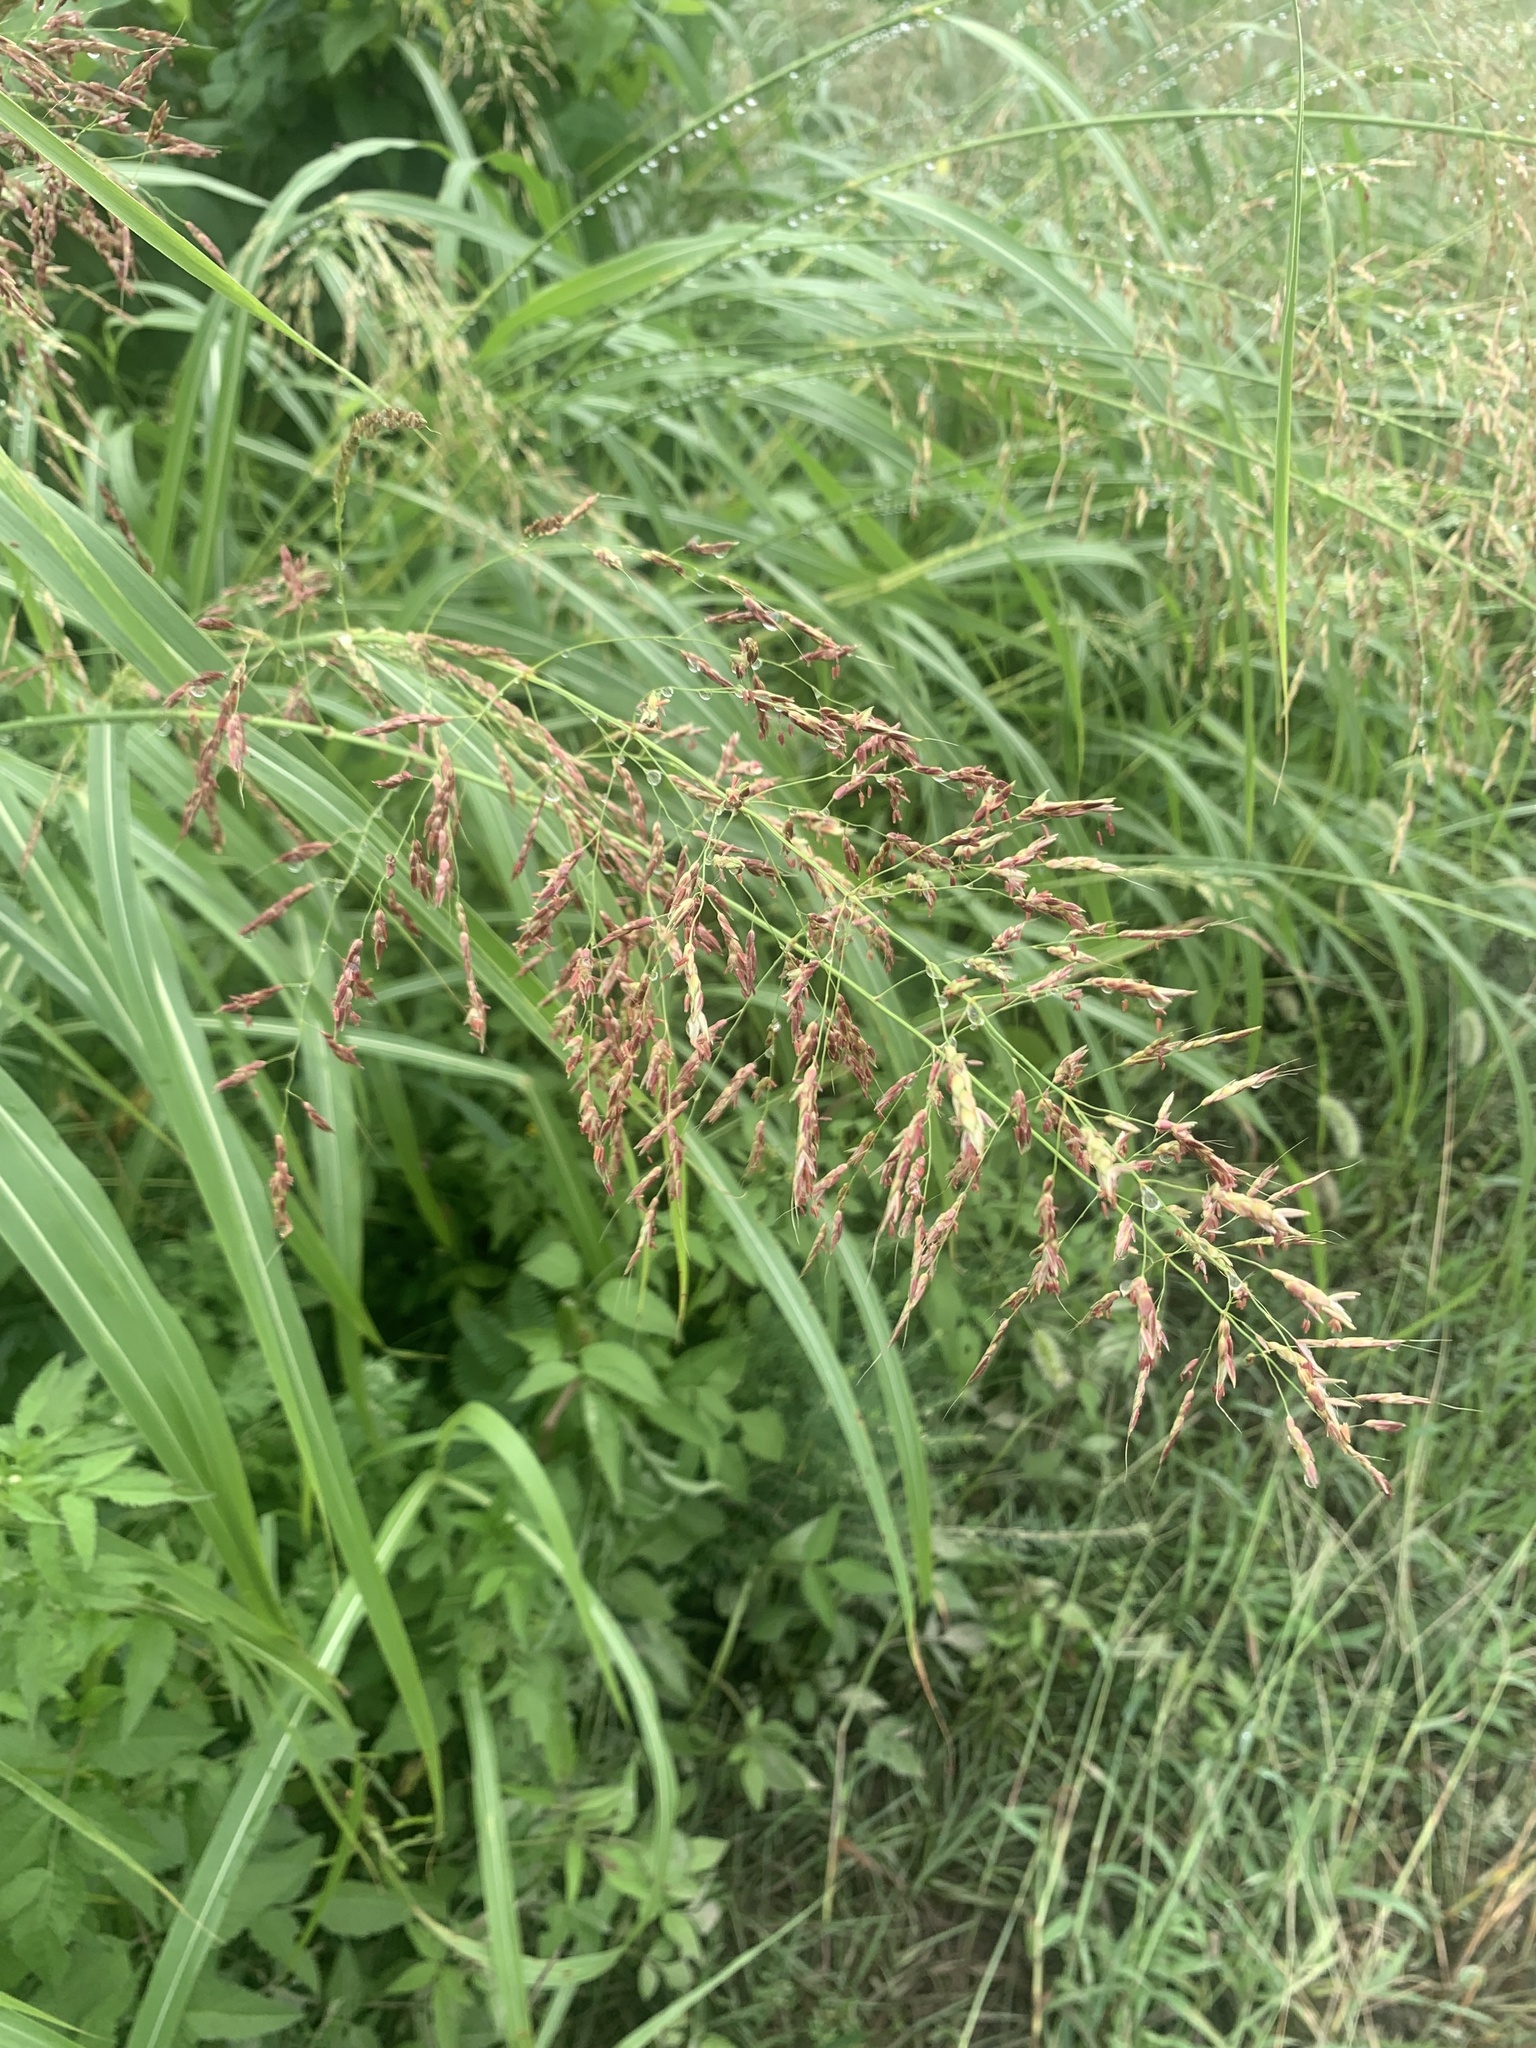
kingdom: Plantae
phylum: Tracheophyta
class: Liliopsida
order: Poales
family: Poaceae
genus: Sorghum
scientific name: Sorghum halepense
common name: Johnson-grass
